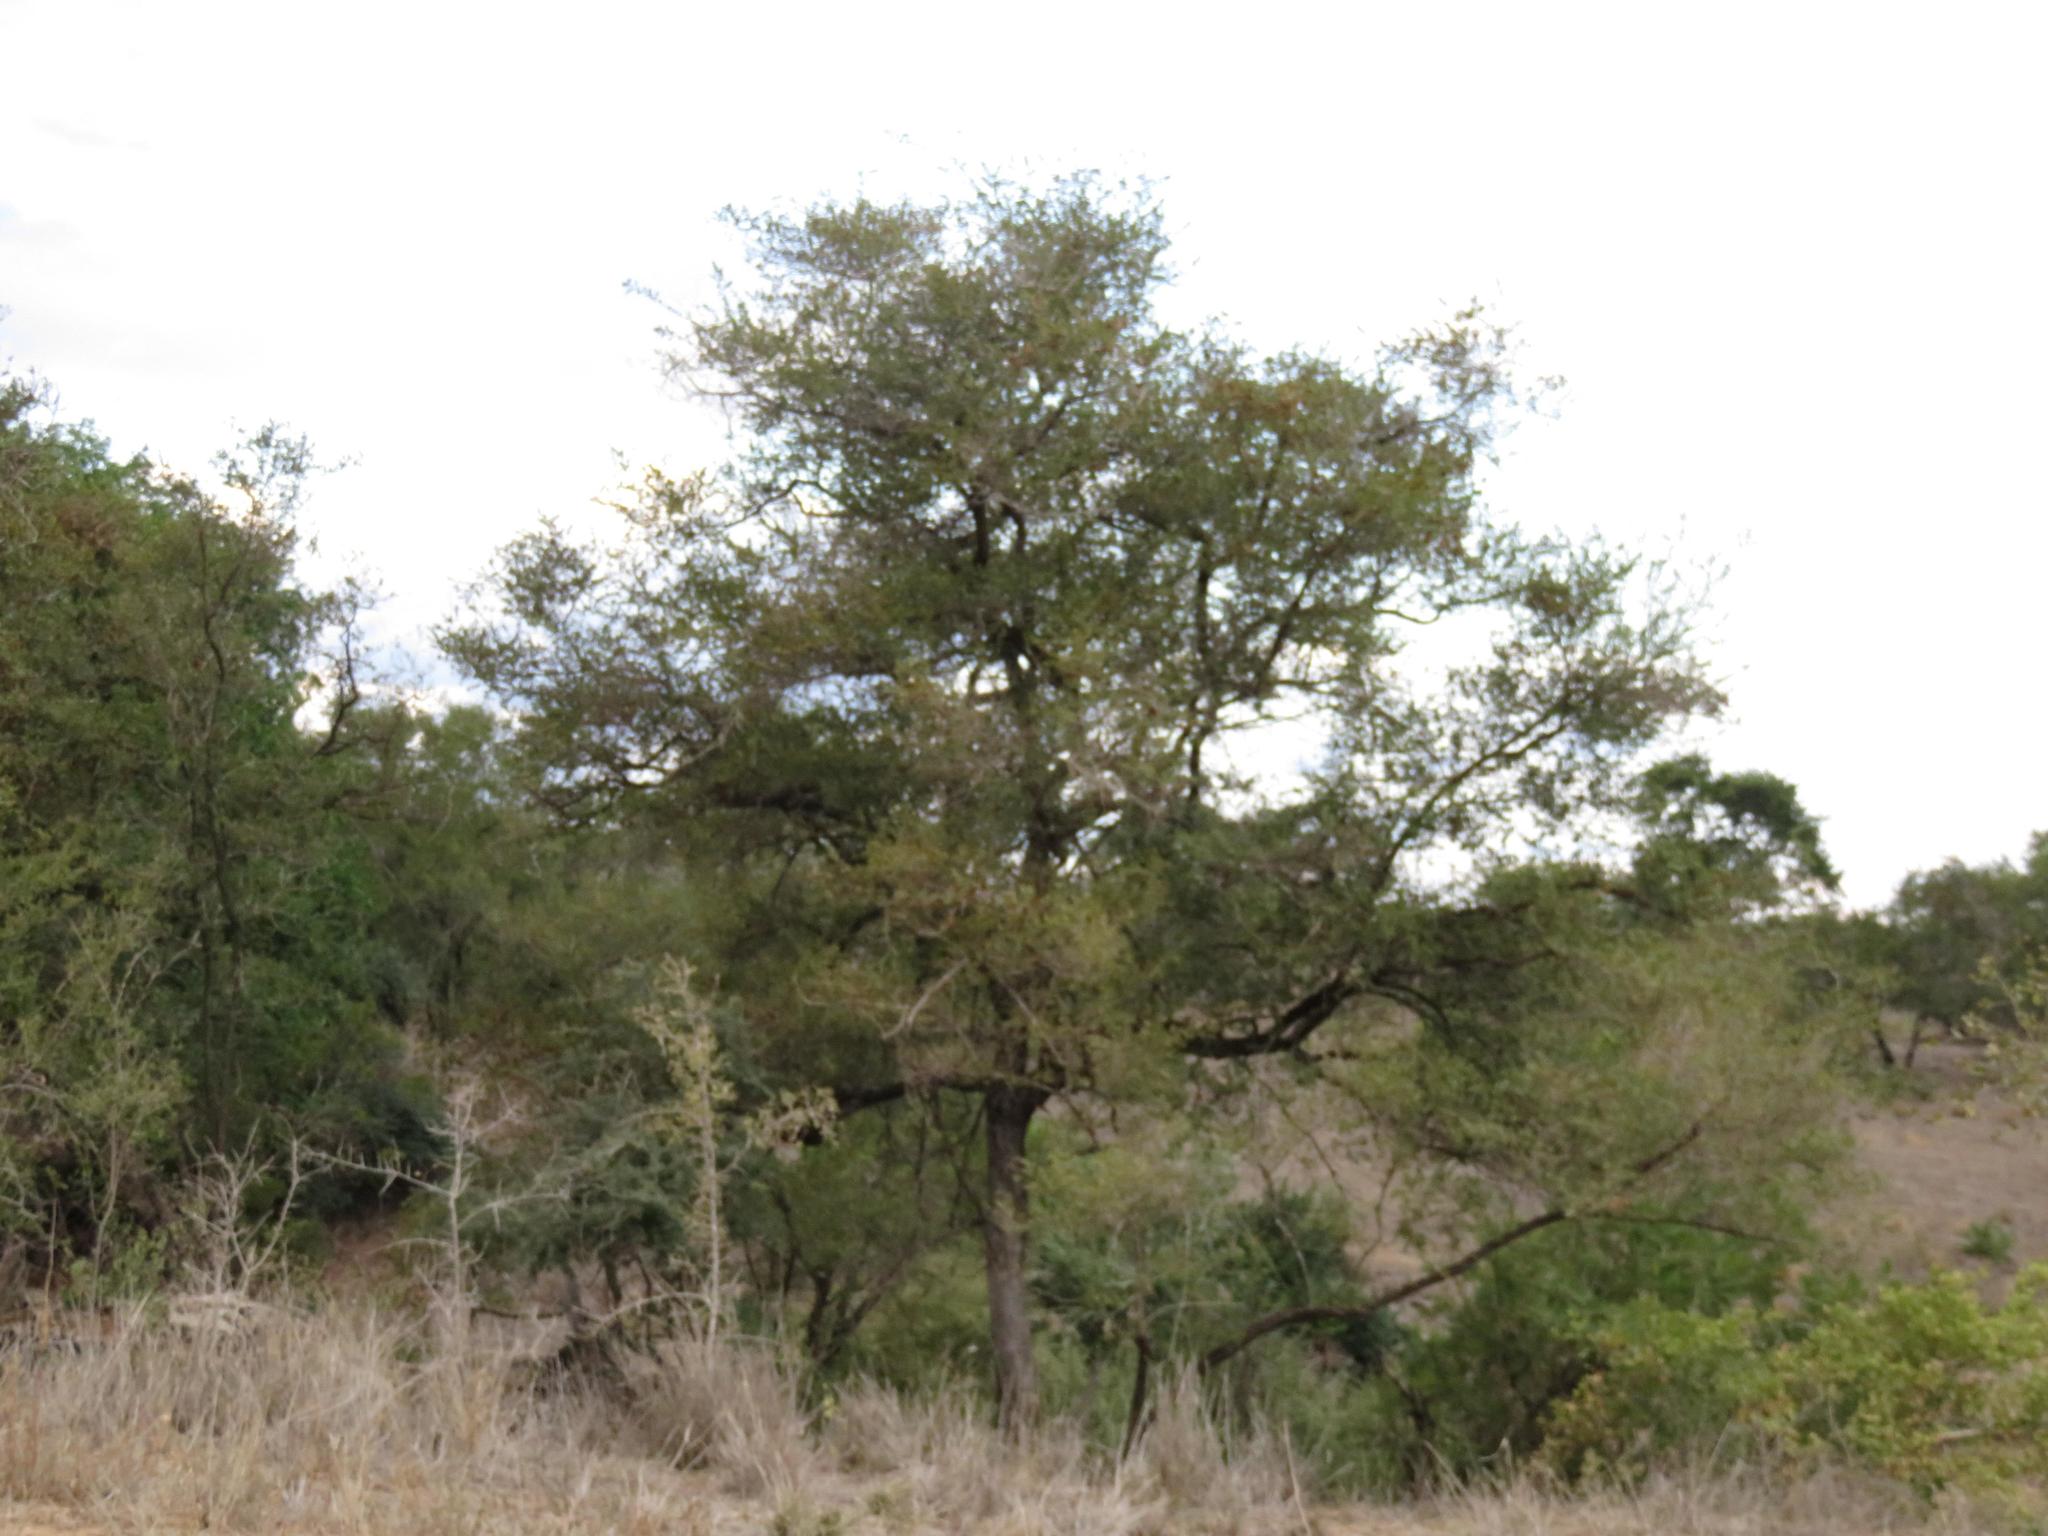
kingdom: Plantae
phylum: Tracheophyta
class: Magnoliopsida
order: Myrtales
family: Combretaceae
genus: Combretum
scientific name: Combretum hereroense
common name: Russet bushwillow
